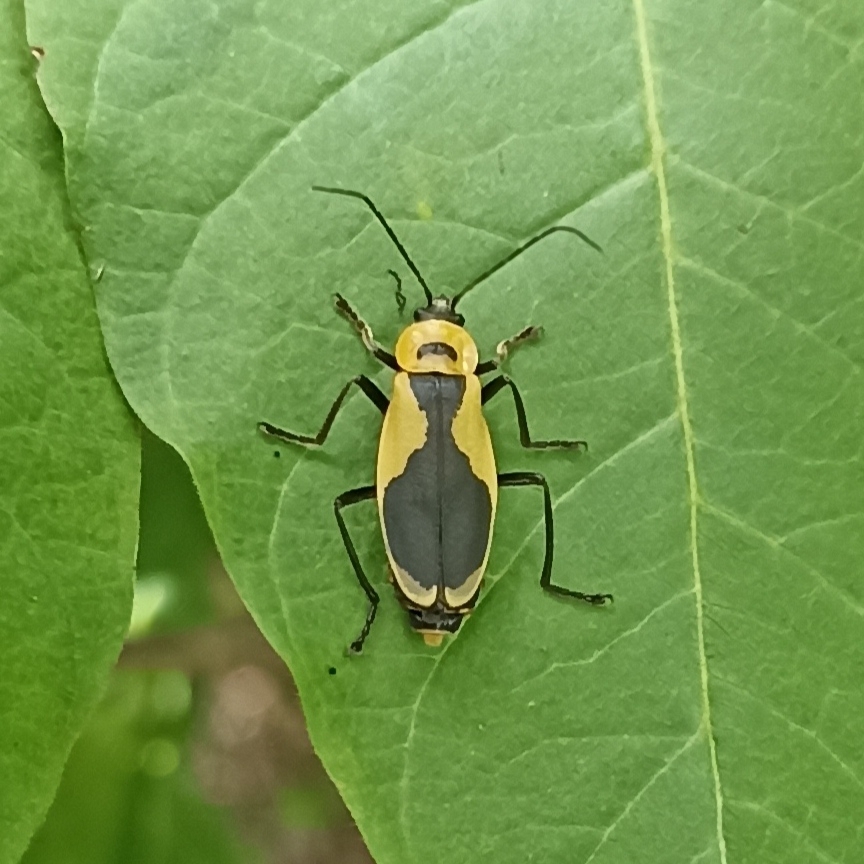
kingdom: Animalia
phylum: Arthropoda
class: Insecta
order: Coleoptera
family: Cantharidae
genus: Chauliognathus
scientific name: Chauliognathus
